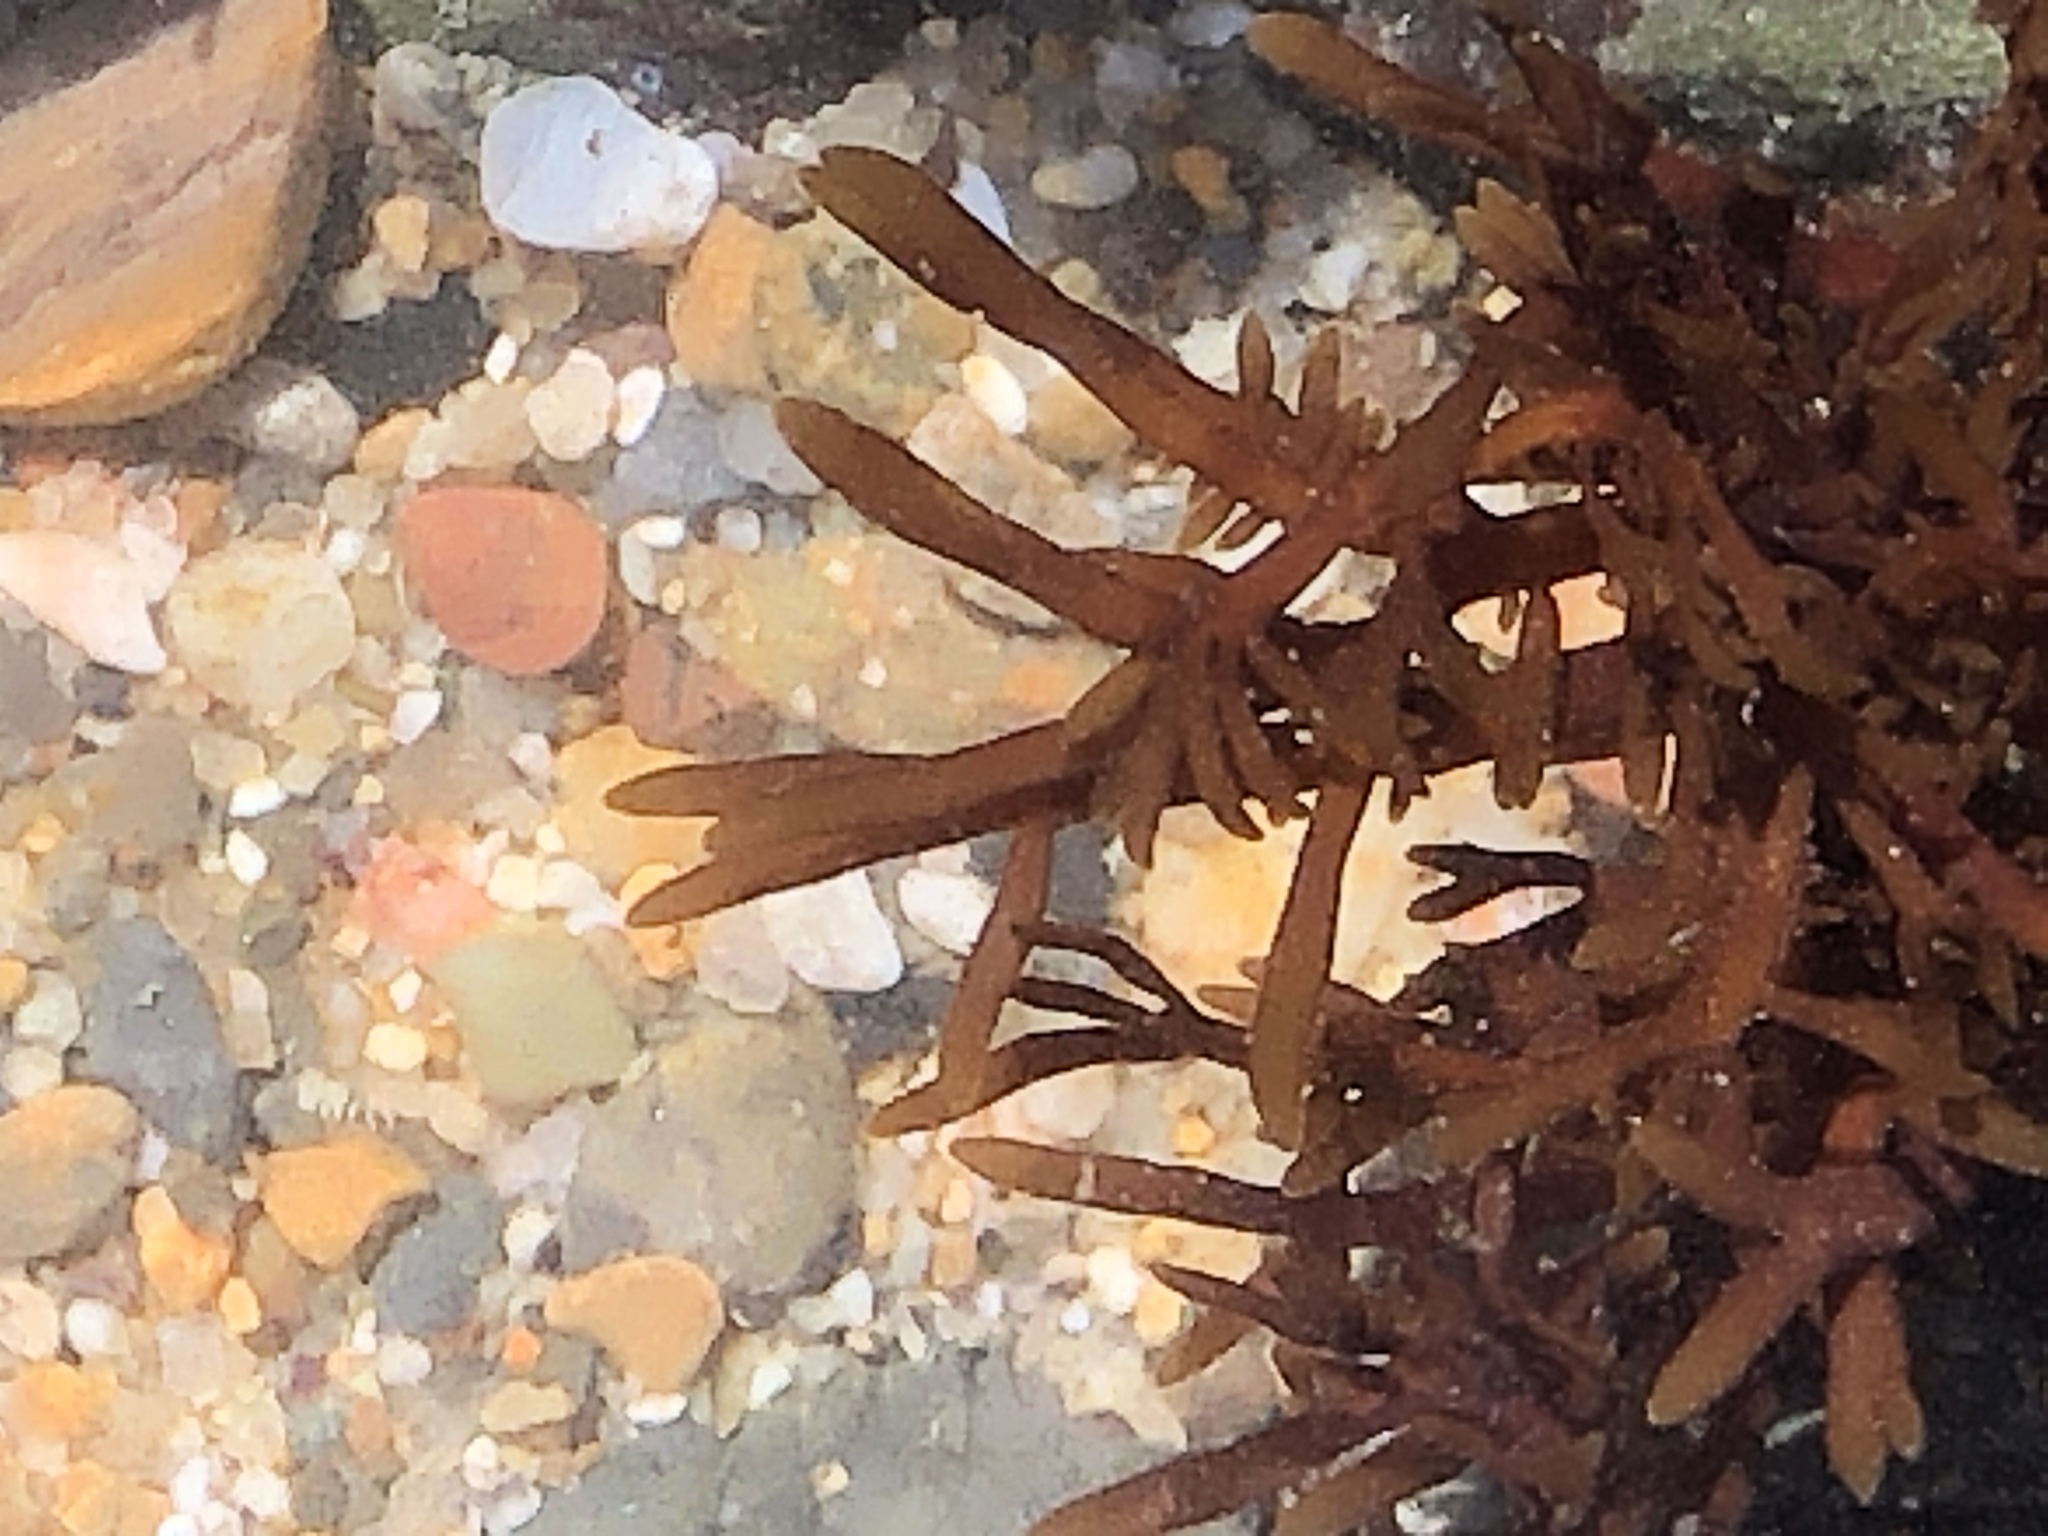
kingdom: Plantae
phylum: Rhodophyta
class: Florideophyceae
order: Halymeniales
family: Halymeniaceae
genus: Grateloupia
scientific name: Grateloupia Prionitis lanceolata
